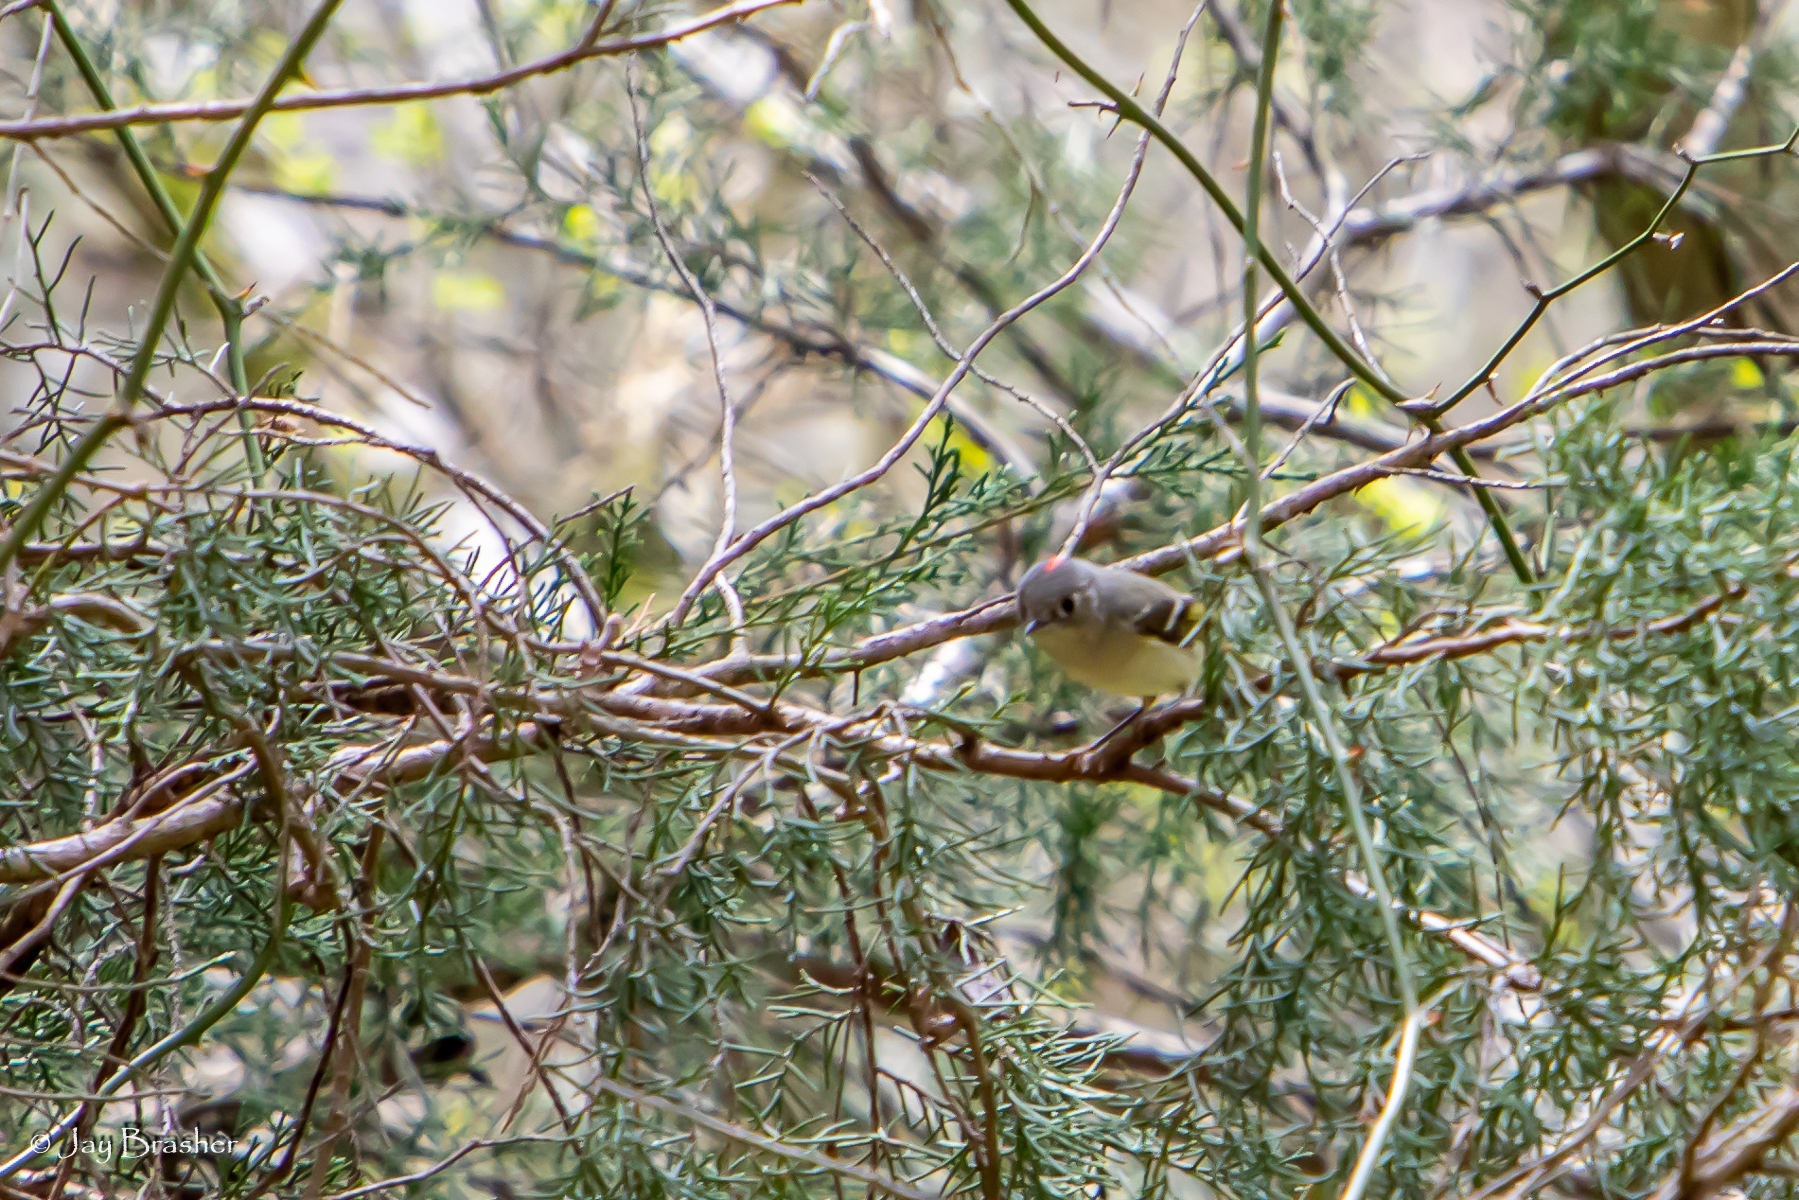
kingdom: Animalia
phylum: Chordata
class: Aves
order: Passeriformes
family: Regulidae
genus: Regulus
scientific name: Regulus calendula
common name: Ruby-crowned kinglet
